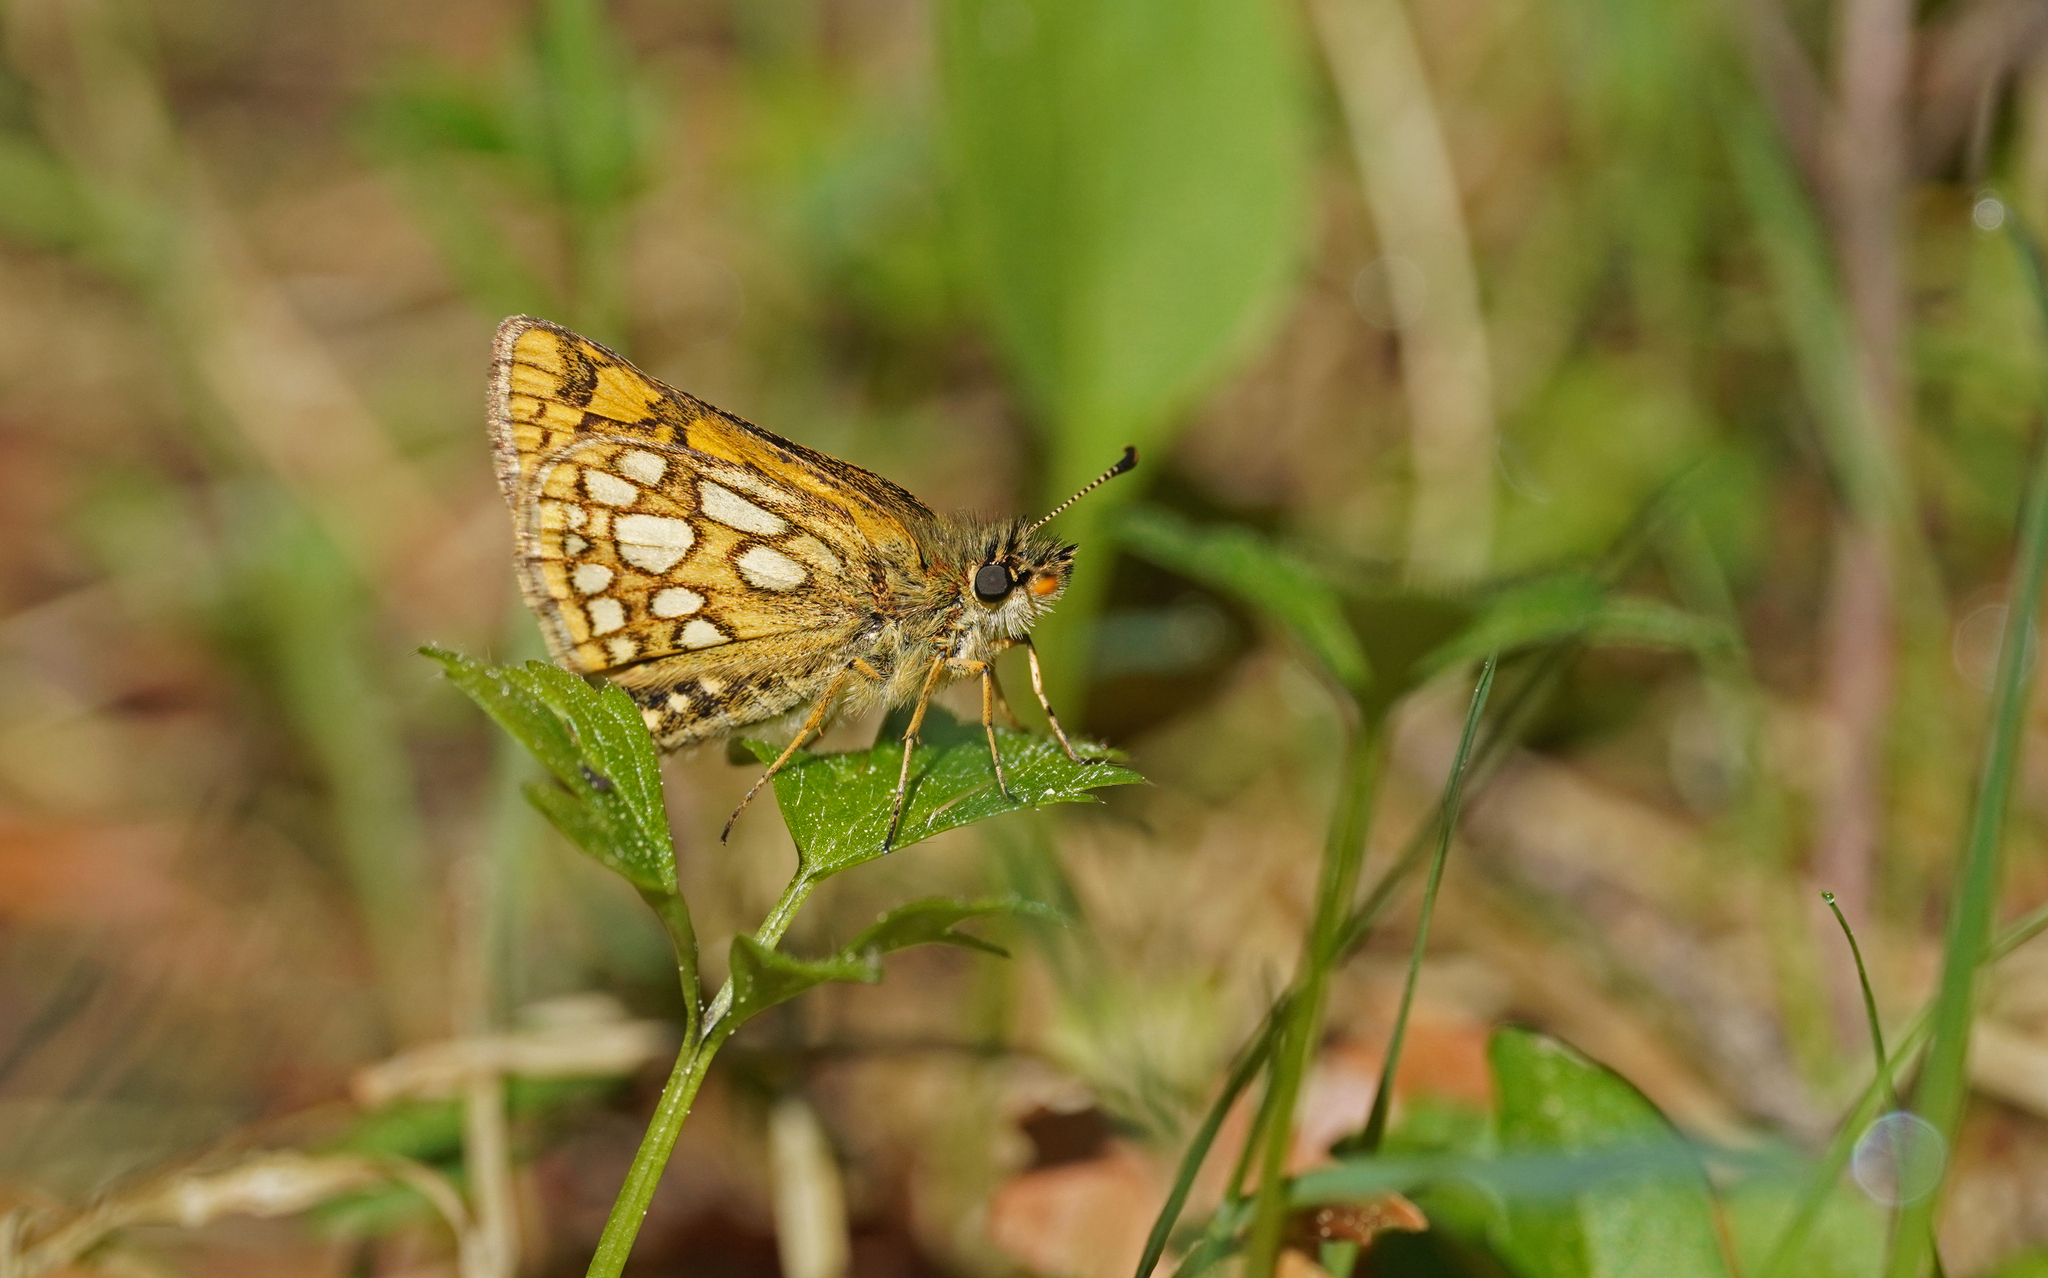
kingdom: Animalia
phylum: Arthropoda
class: Insecta
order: Lepidoptera
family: Hesperiidae
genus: Carterocephalus
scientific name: Carterocephalus palaemon
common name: Chequered skipper
